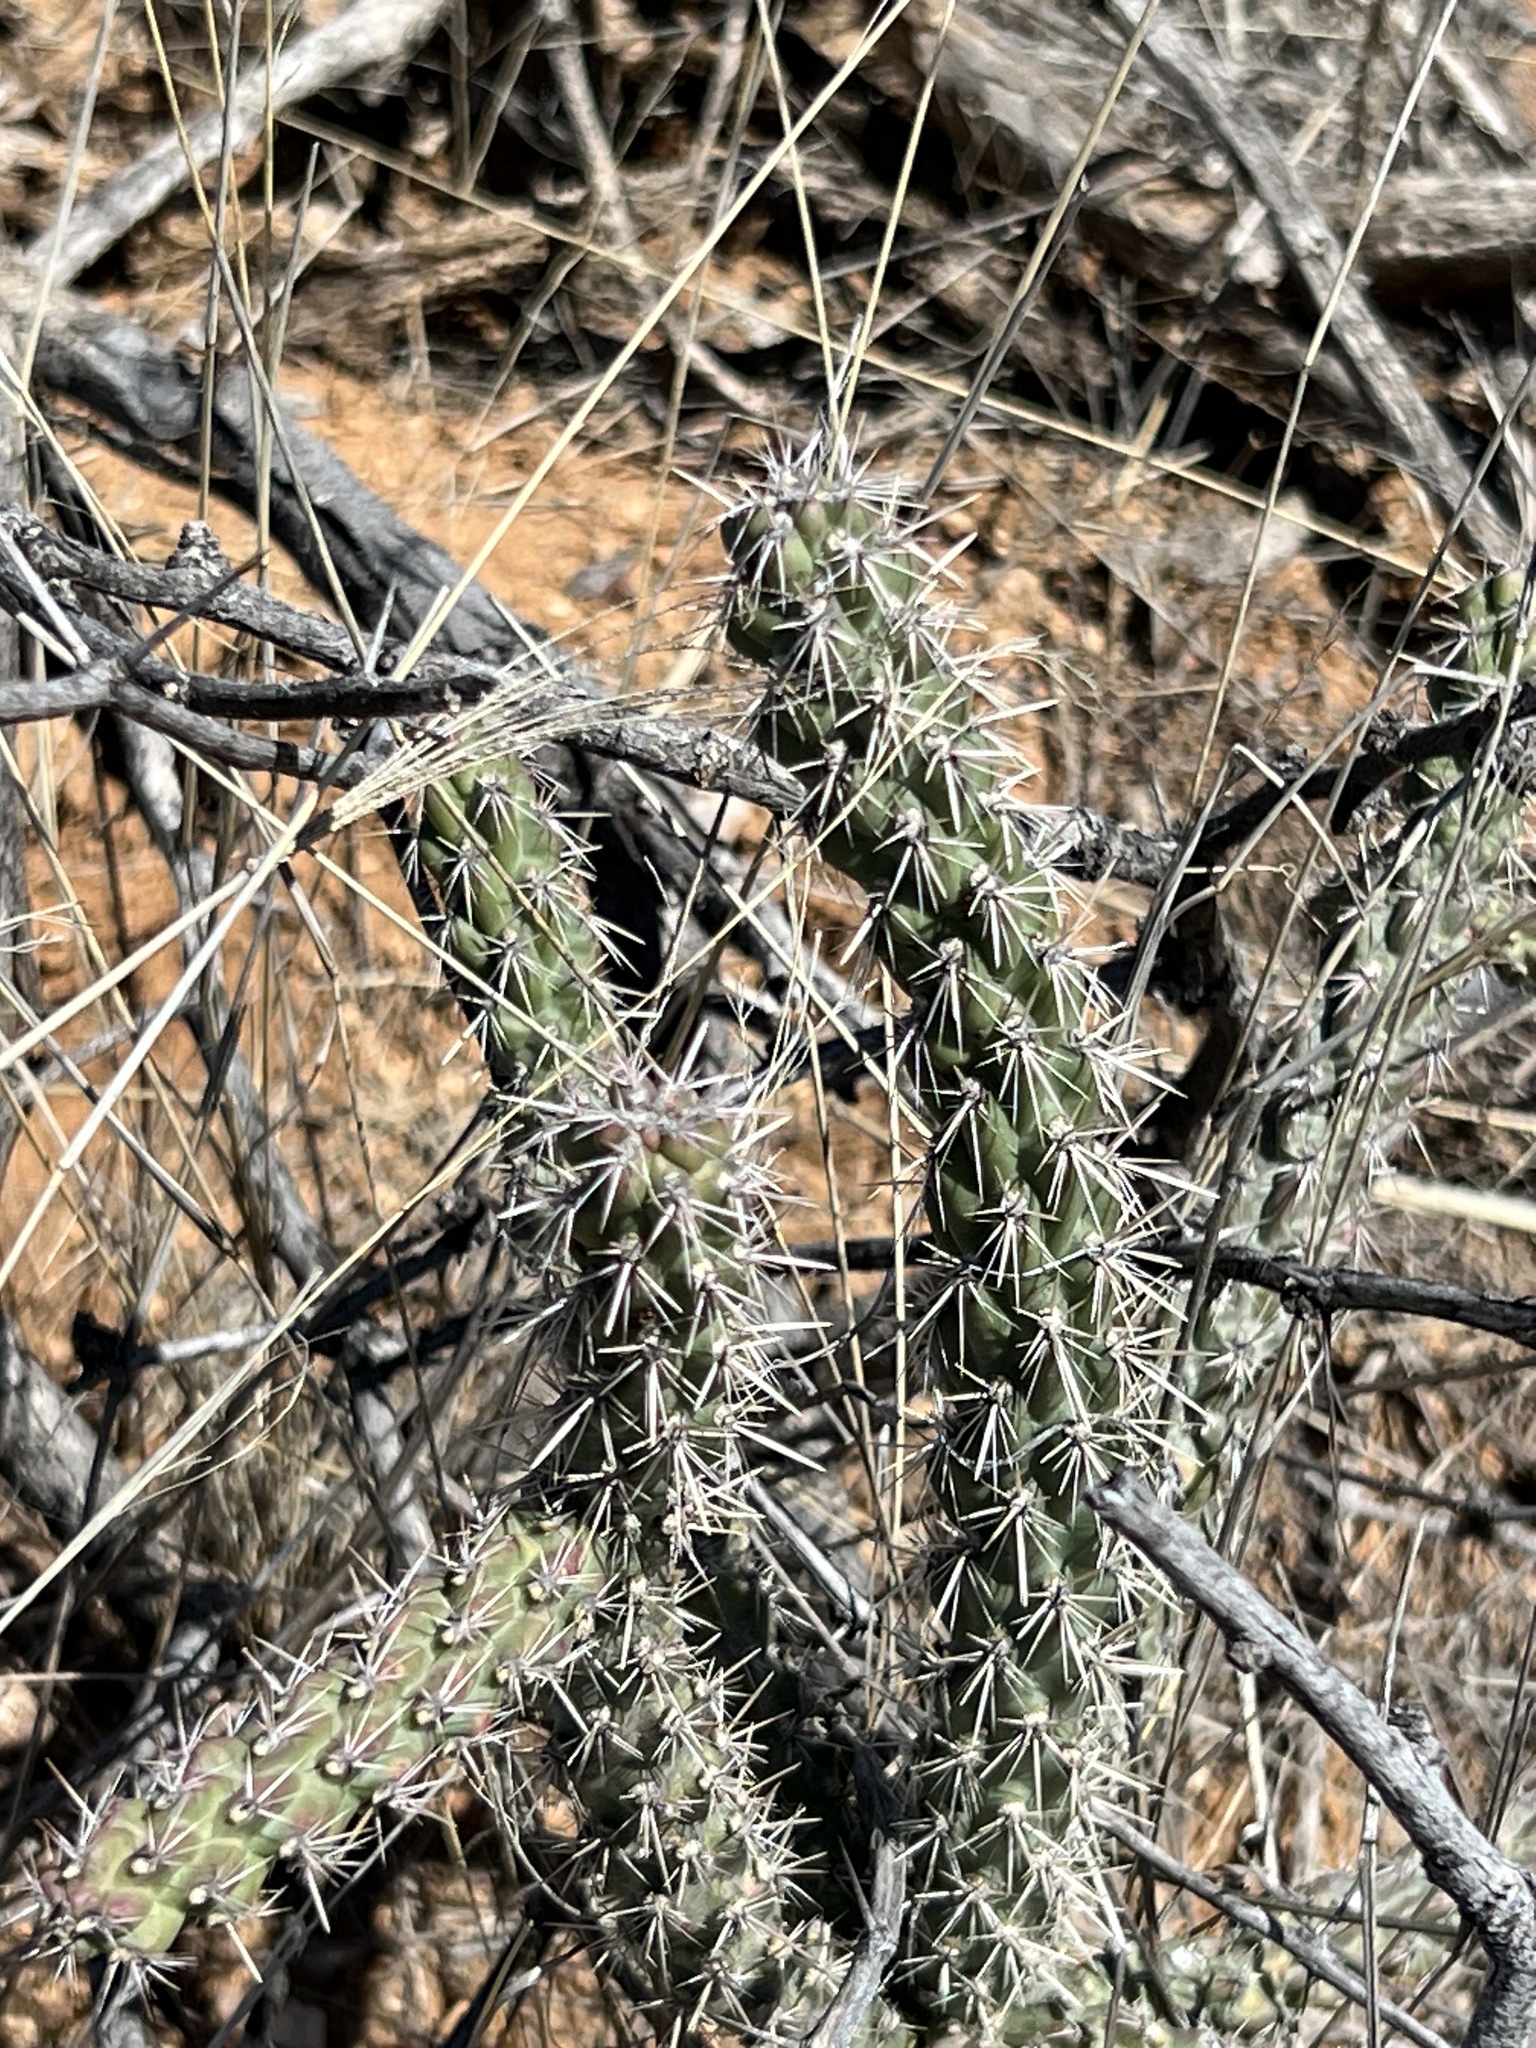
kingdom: Plantae
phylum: Tracheophyta
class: Magnoliopsida
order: Caryophyllales
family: Cactaceae
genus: Cylindropuntia
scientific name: Cylindropuntia imbricata
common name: Candelabrum cactus
